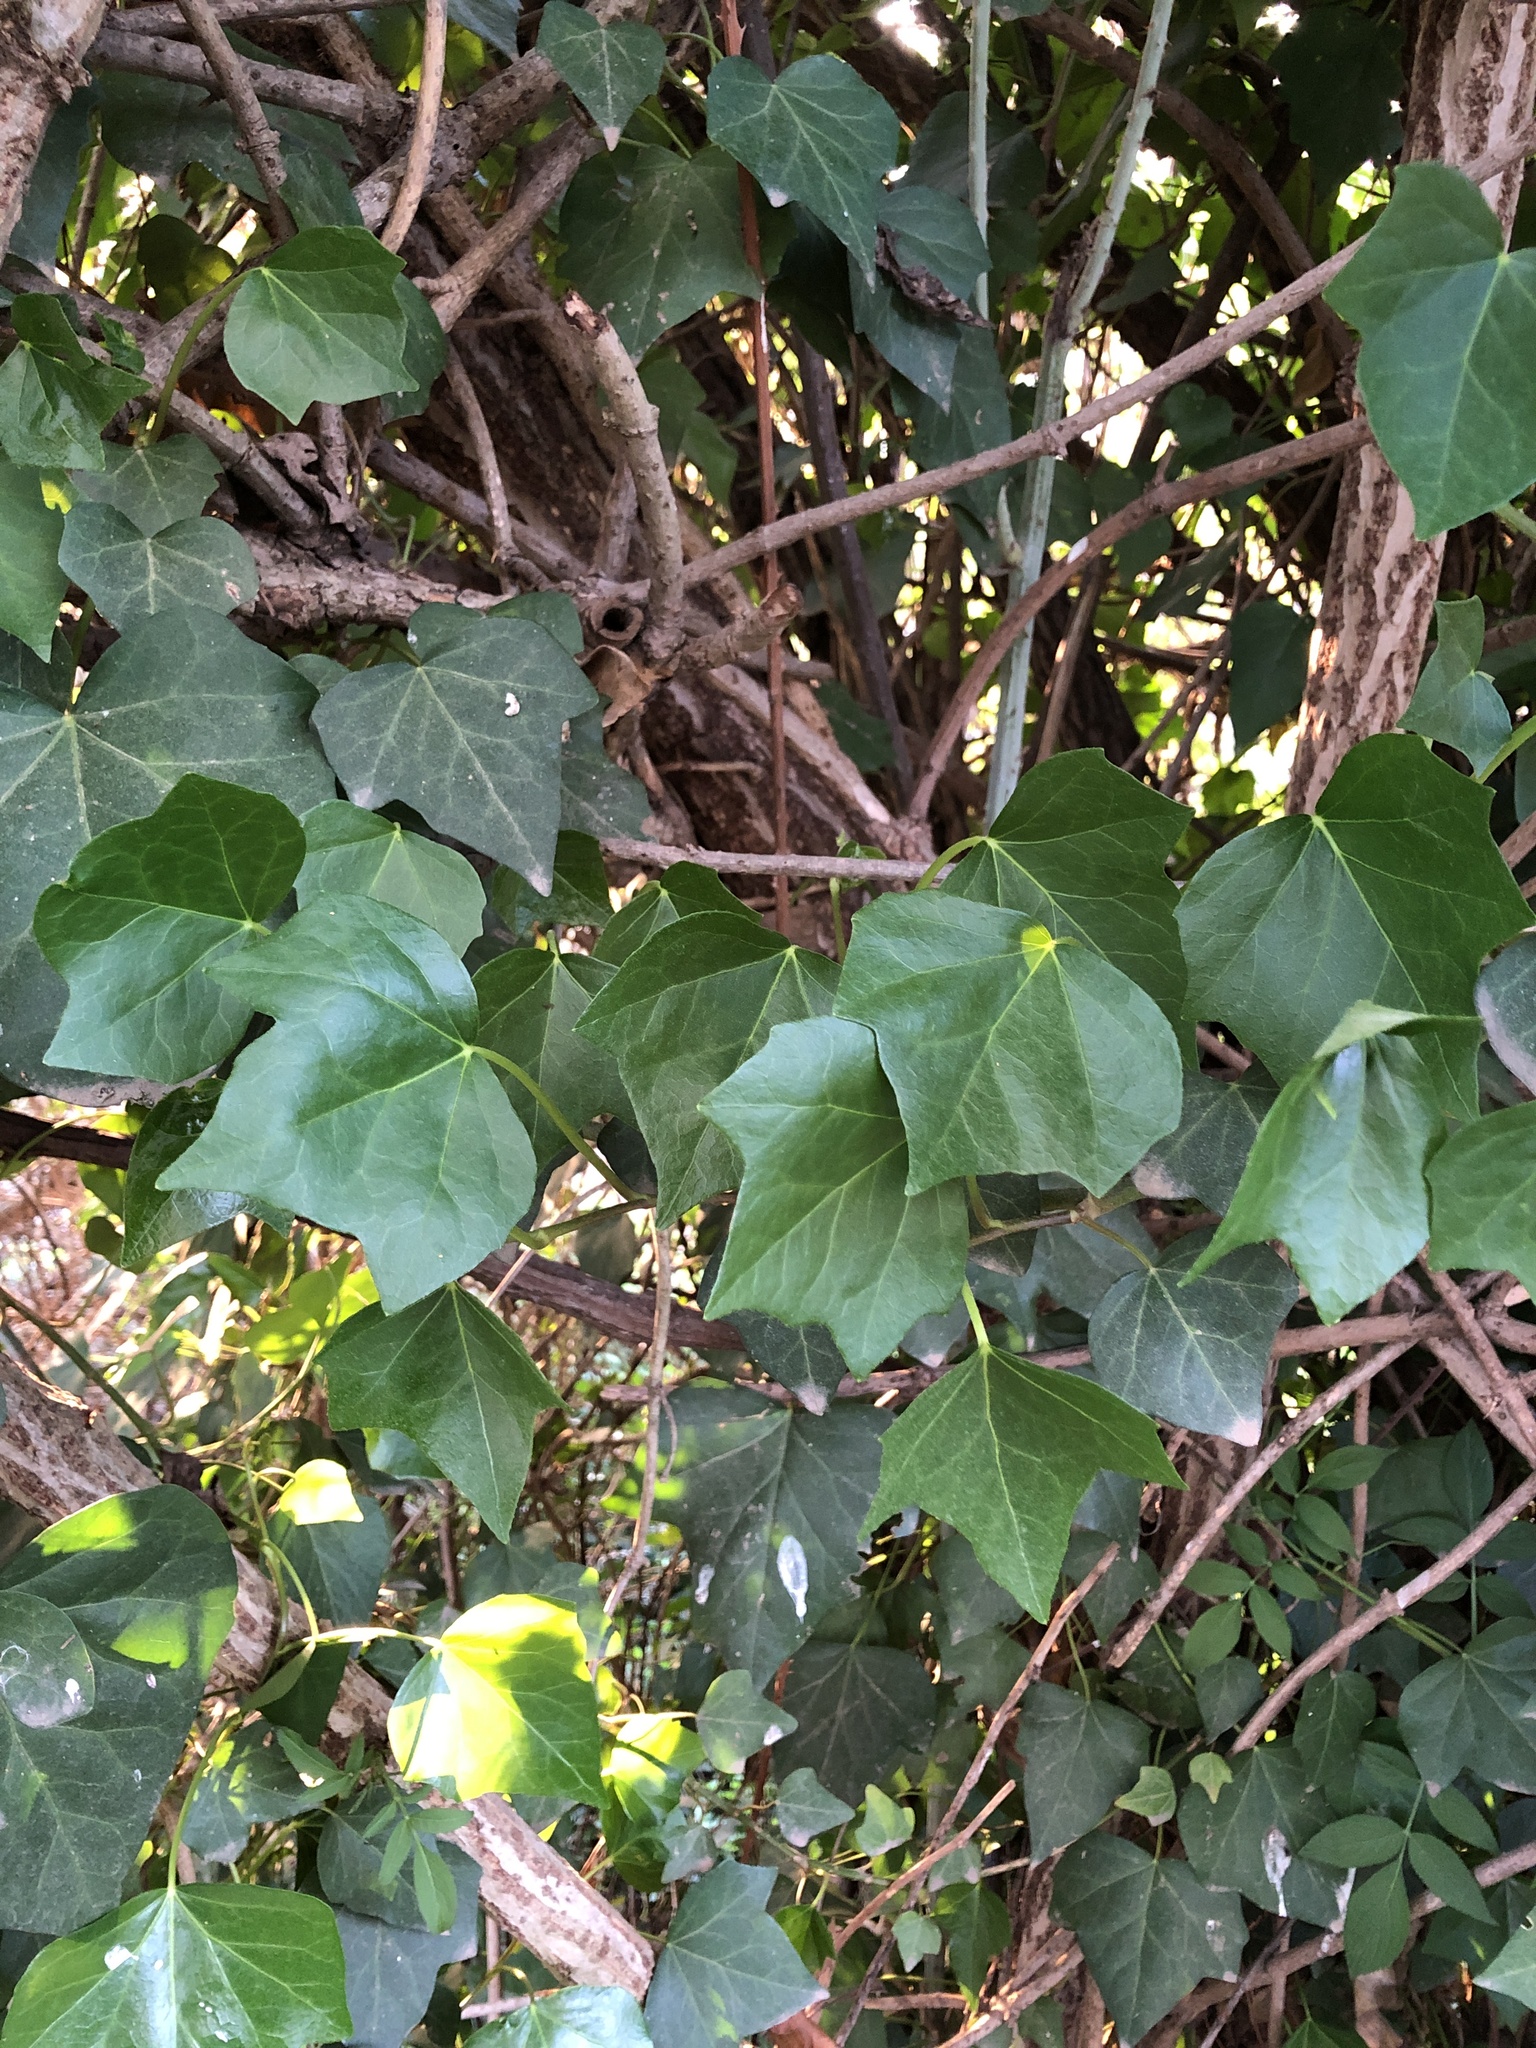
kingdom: Plantae
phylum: Tracheophyta
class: Magnoliopsida
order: Apiales
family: Araliaceae
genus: Hedera
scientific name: Hedera helix
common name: Ivy
